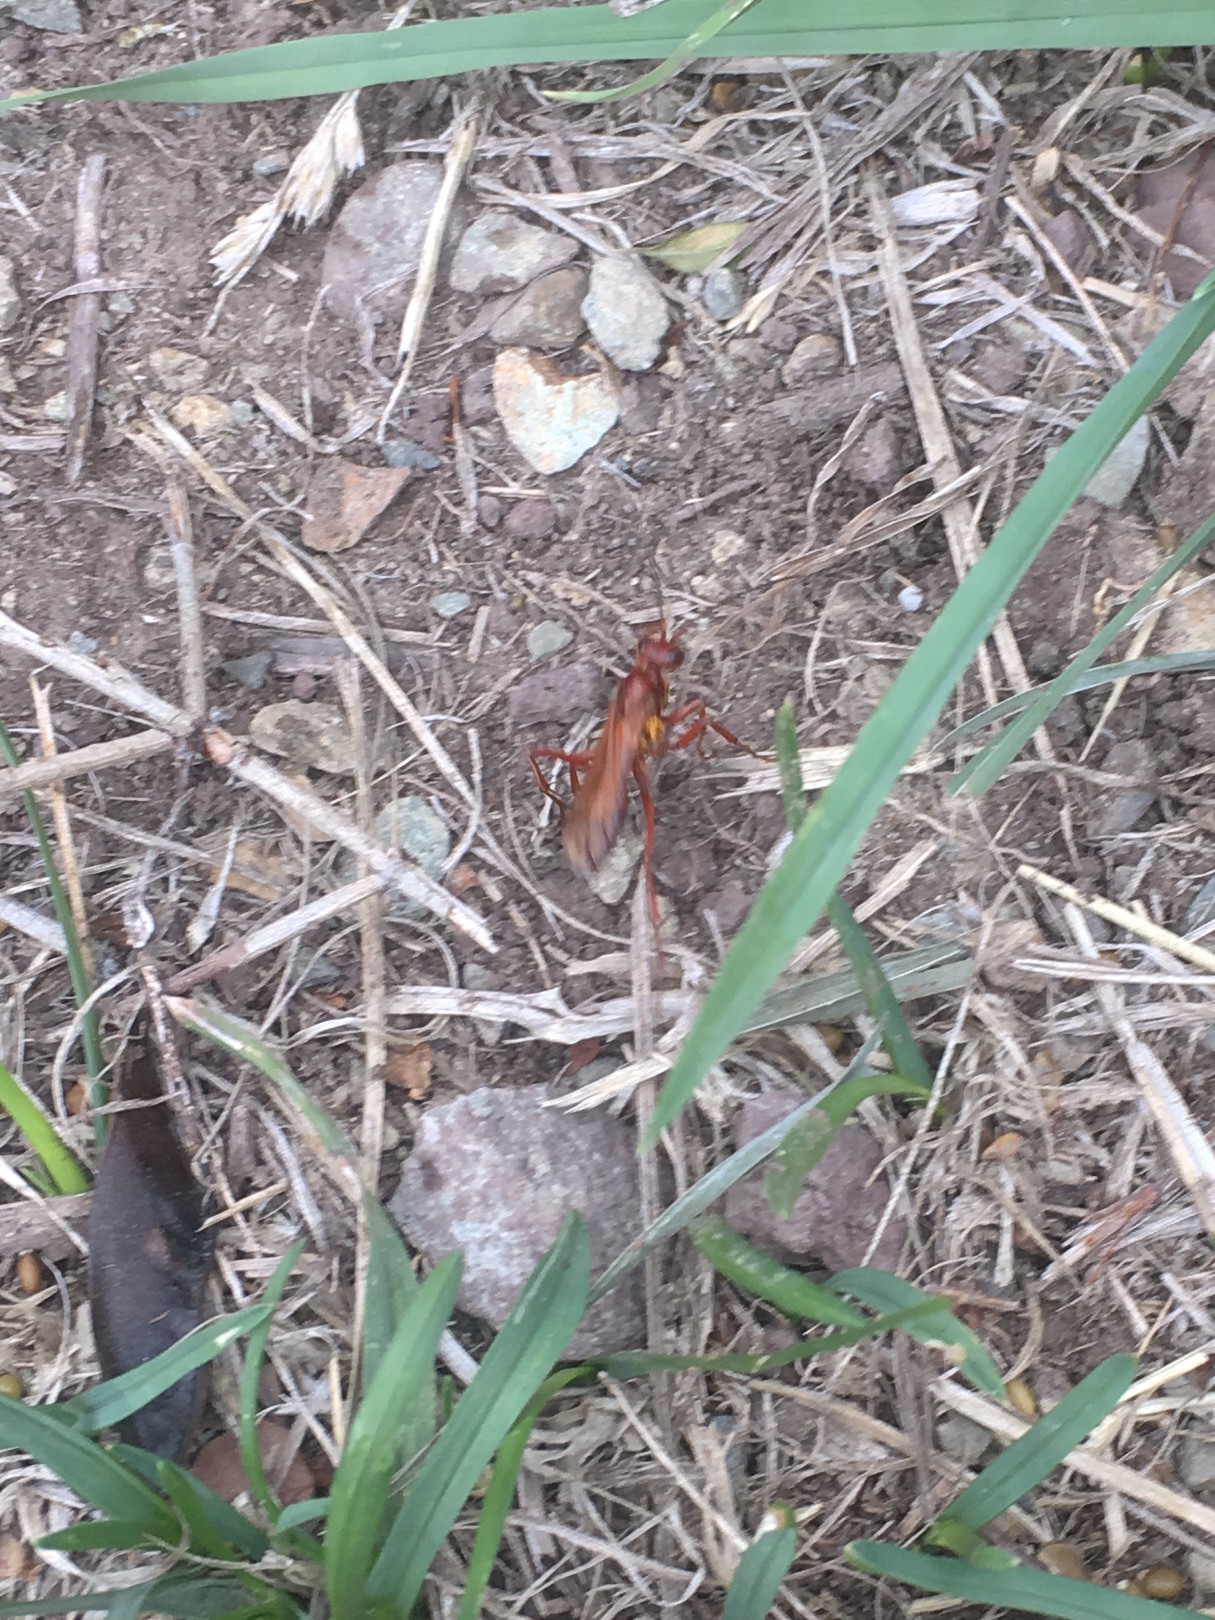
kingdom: Animalia
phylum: Arthropoda
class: Insecta
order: Hymenoptera
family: Pompilidae
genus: Sphictostethus
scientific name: Sphictostethus nitidus
